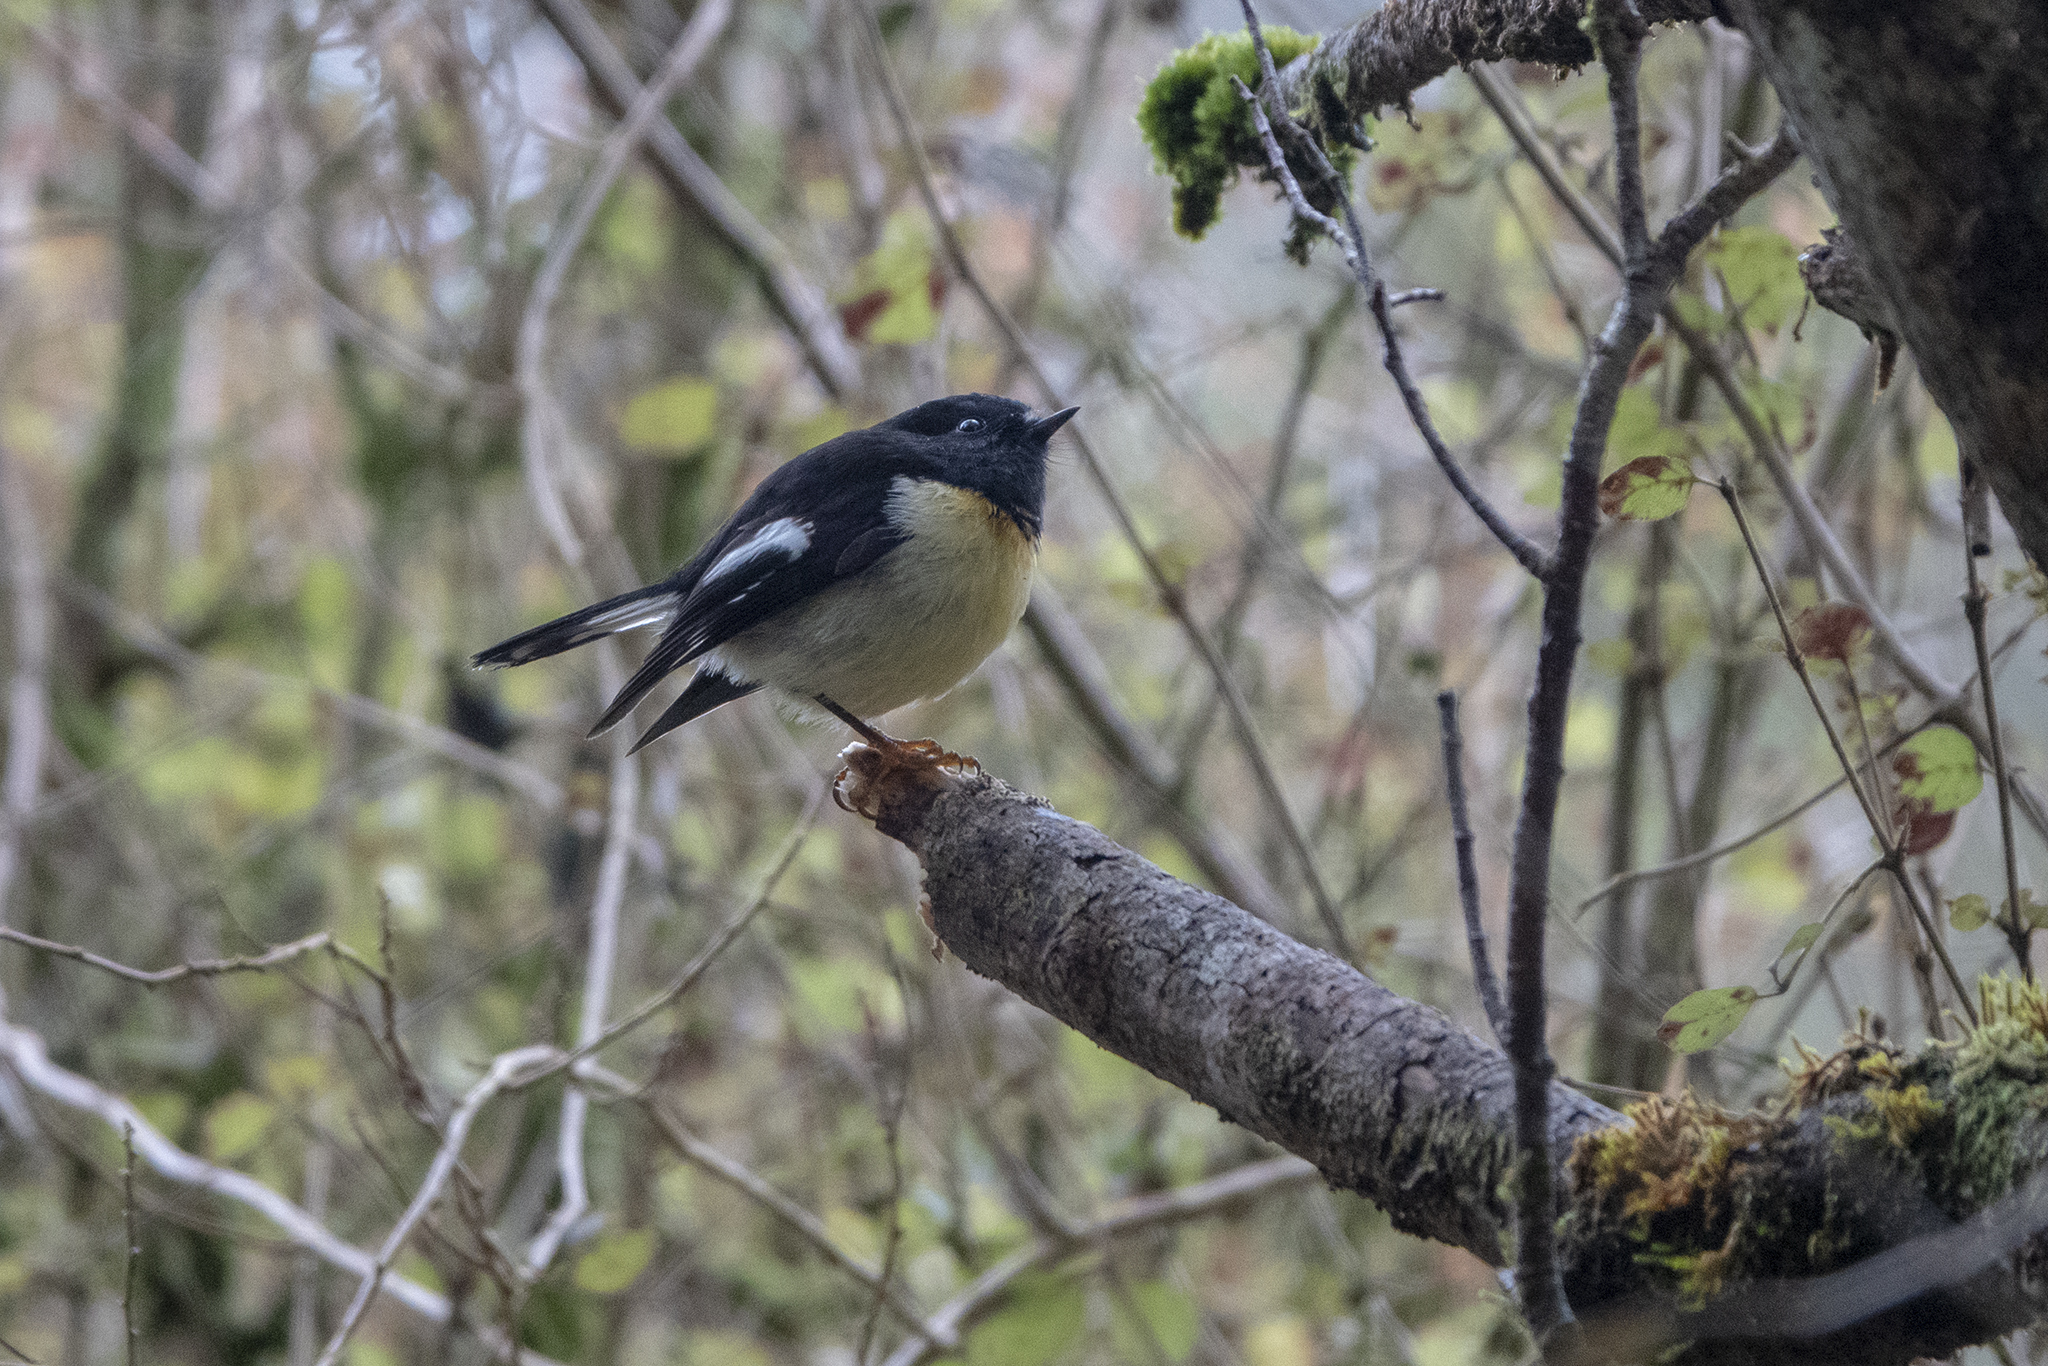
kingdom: Animalia
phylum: Chordata
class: Aves
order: Passeriformes
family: Petroicidae
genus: Petroica
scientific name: Petroica macrocephala
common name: Tomtit
